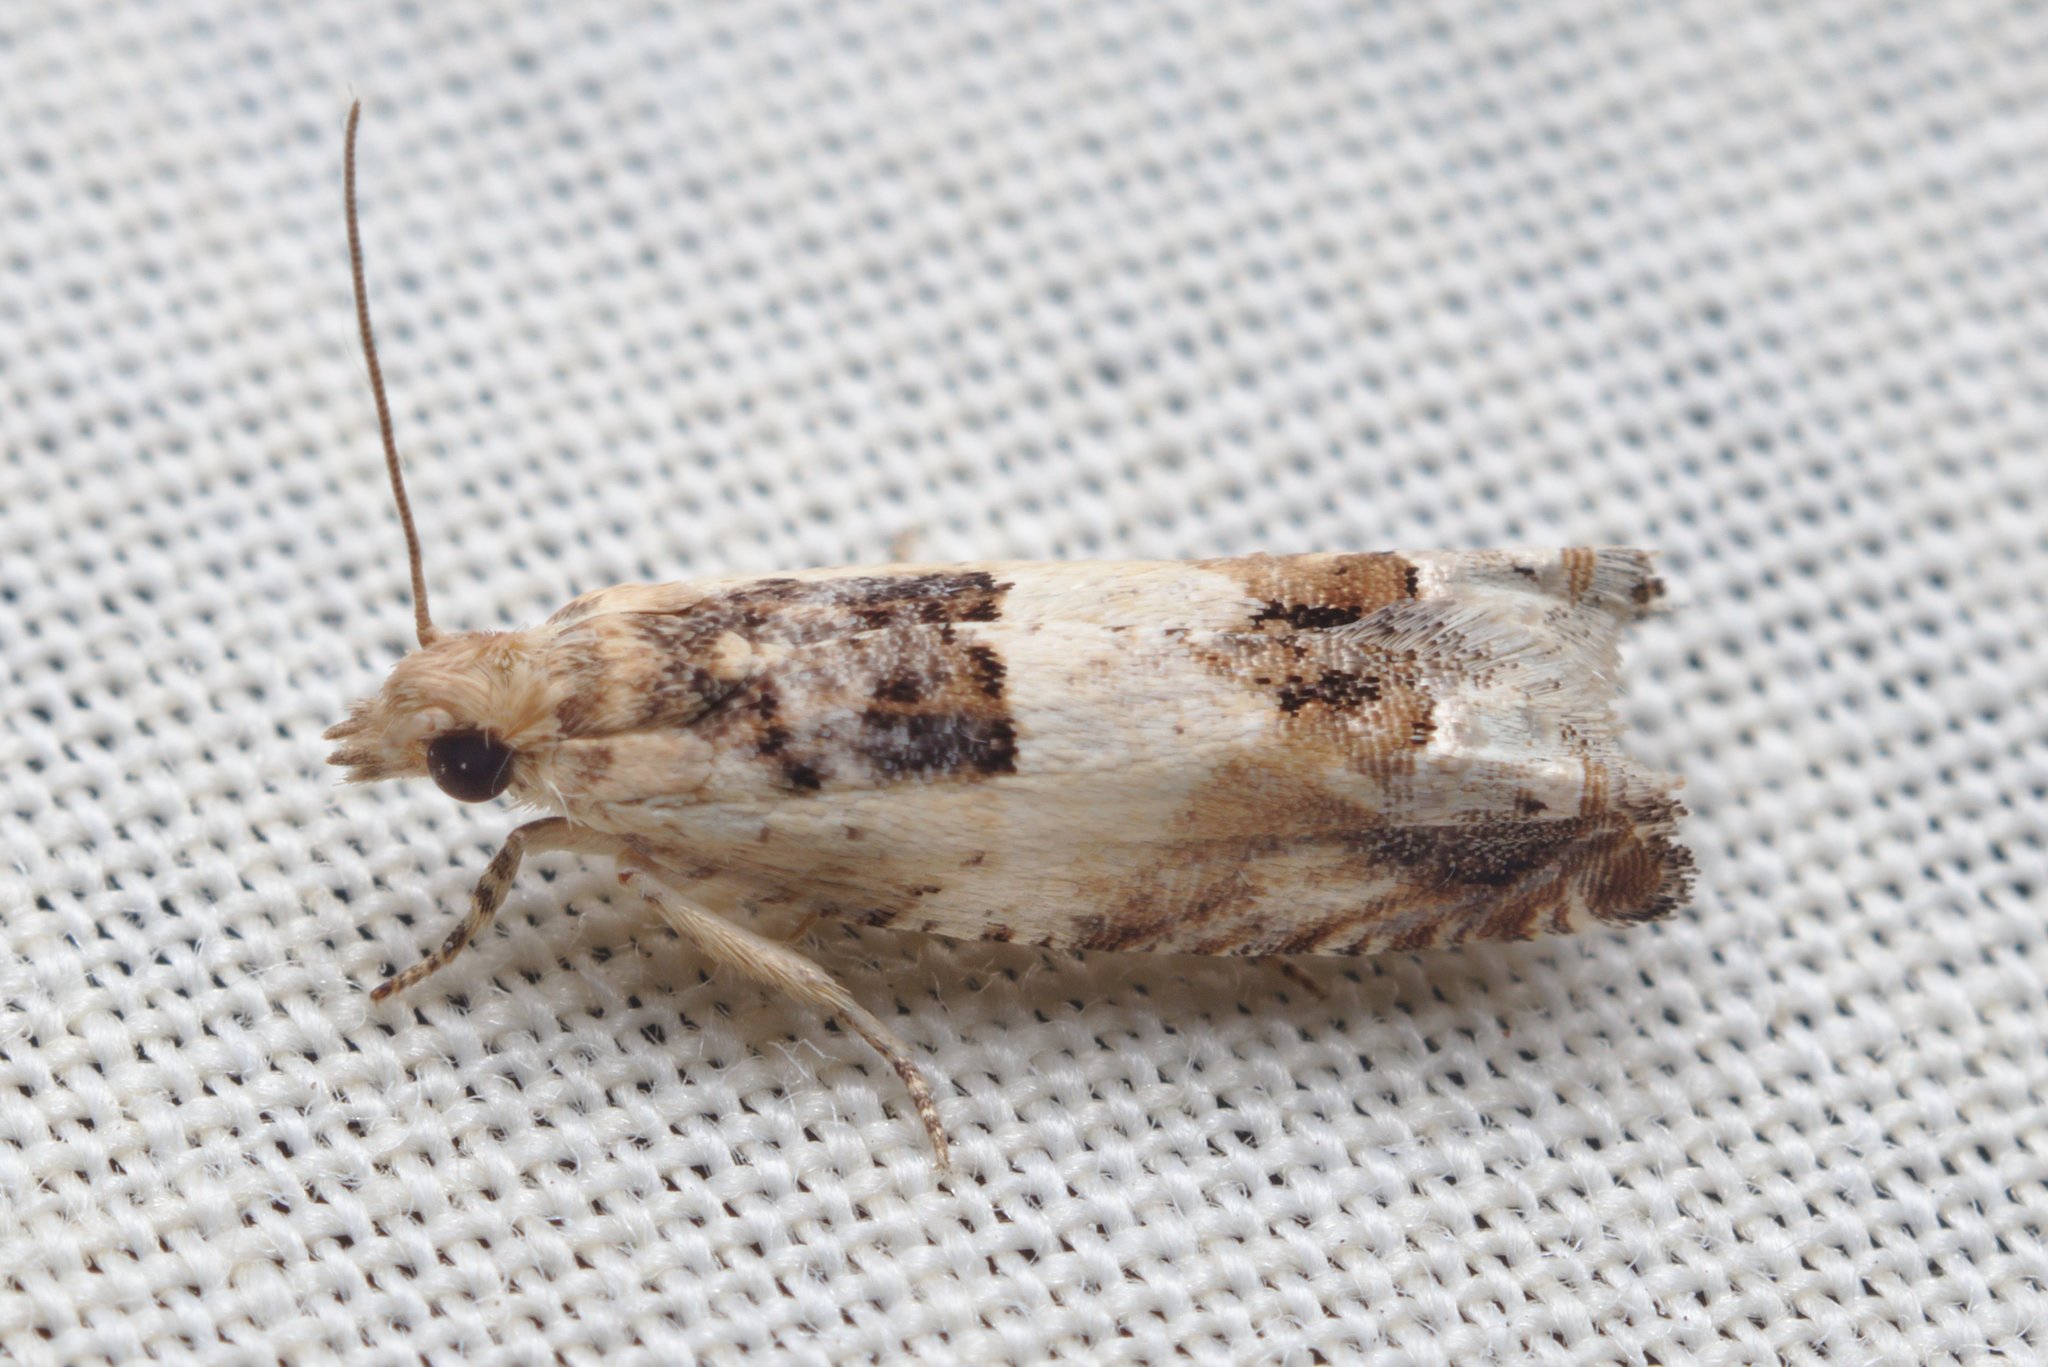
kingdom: Animalia
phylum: Arthropoda
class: Insecta
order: Lepidoptera
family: Tortricidae
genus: Crocidosema
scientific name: Crocidosema plebejana
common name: Southern bell
